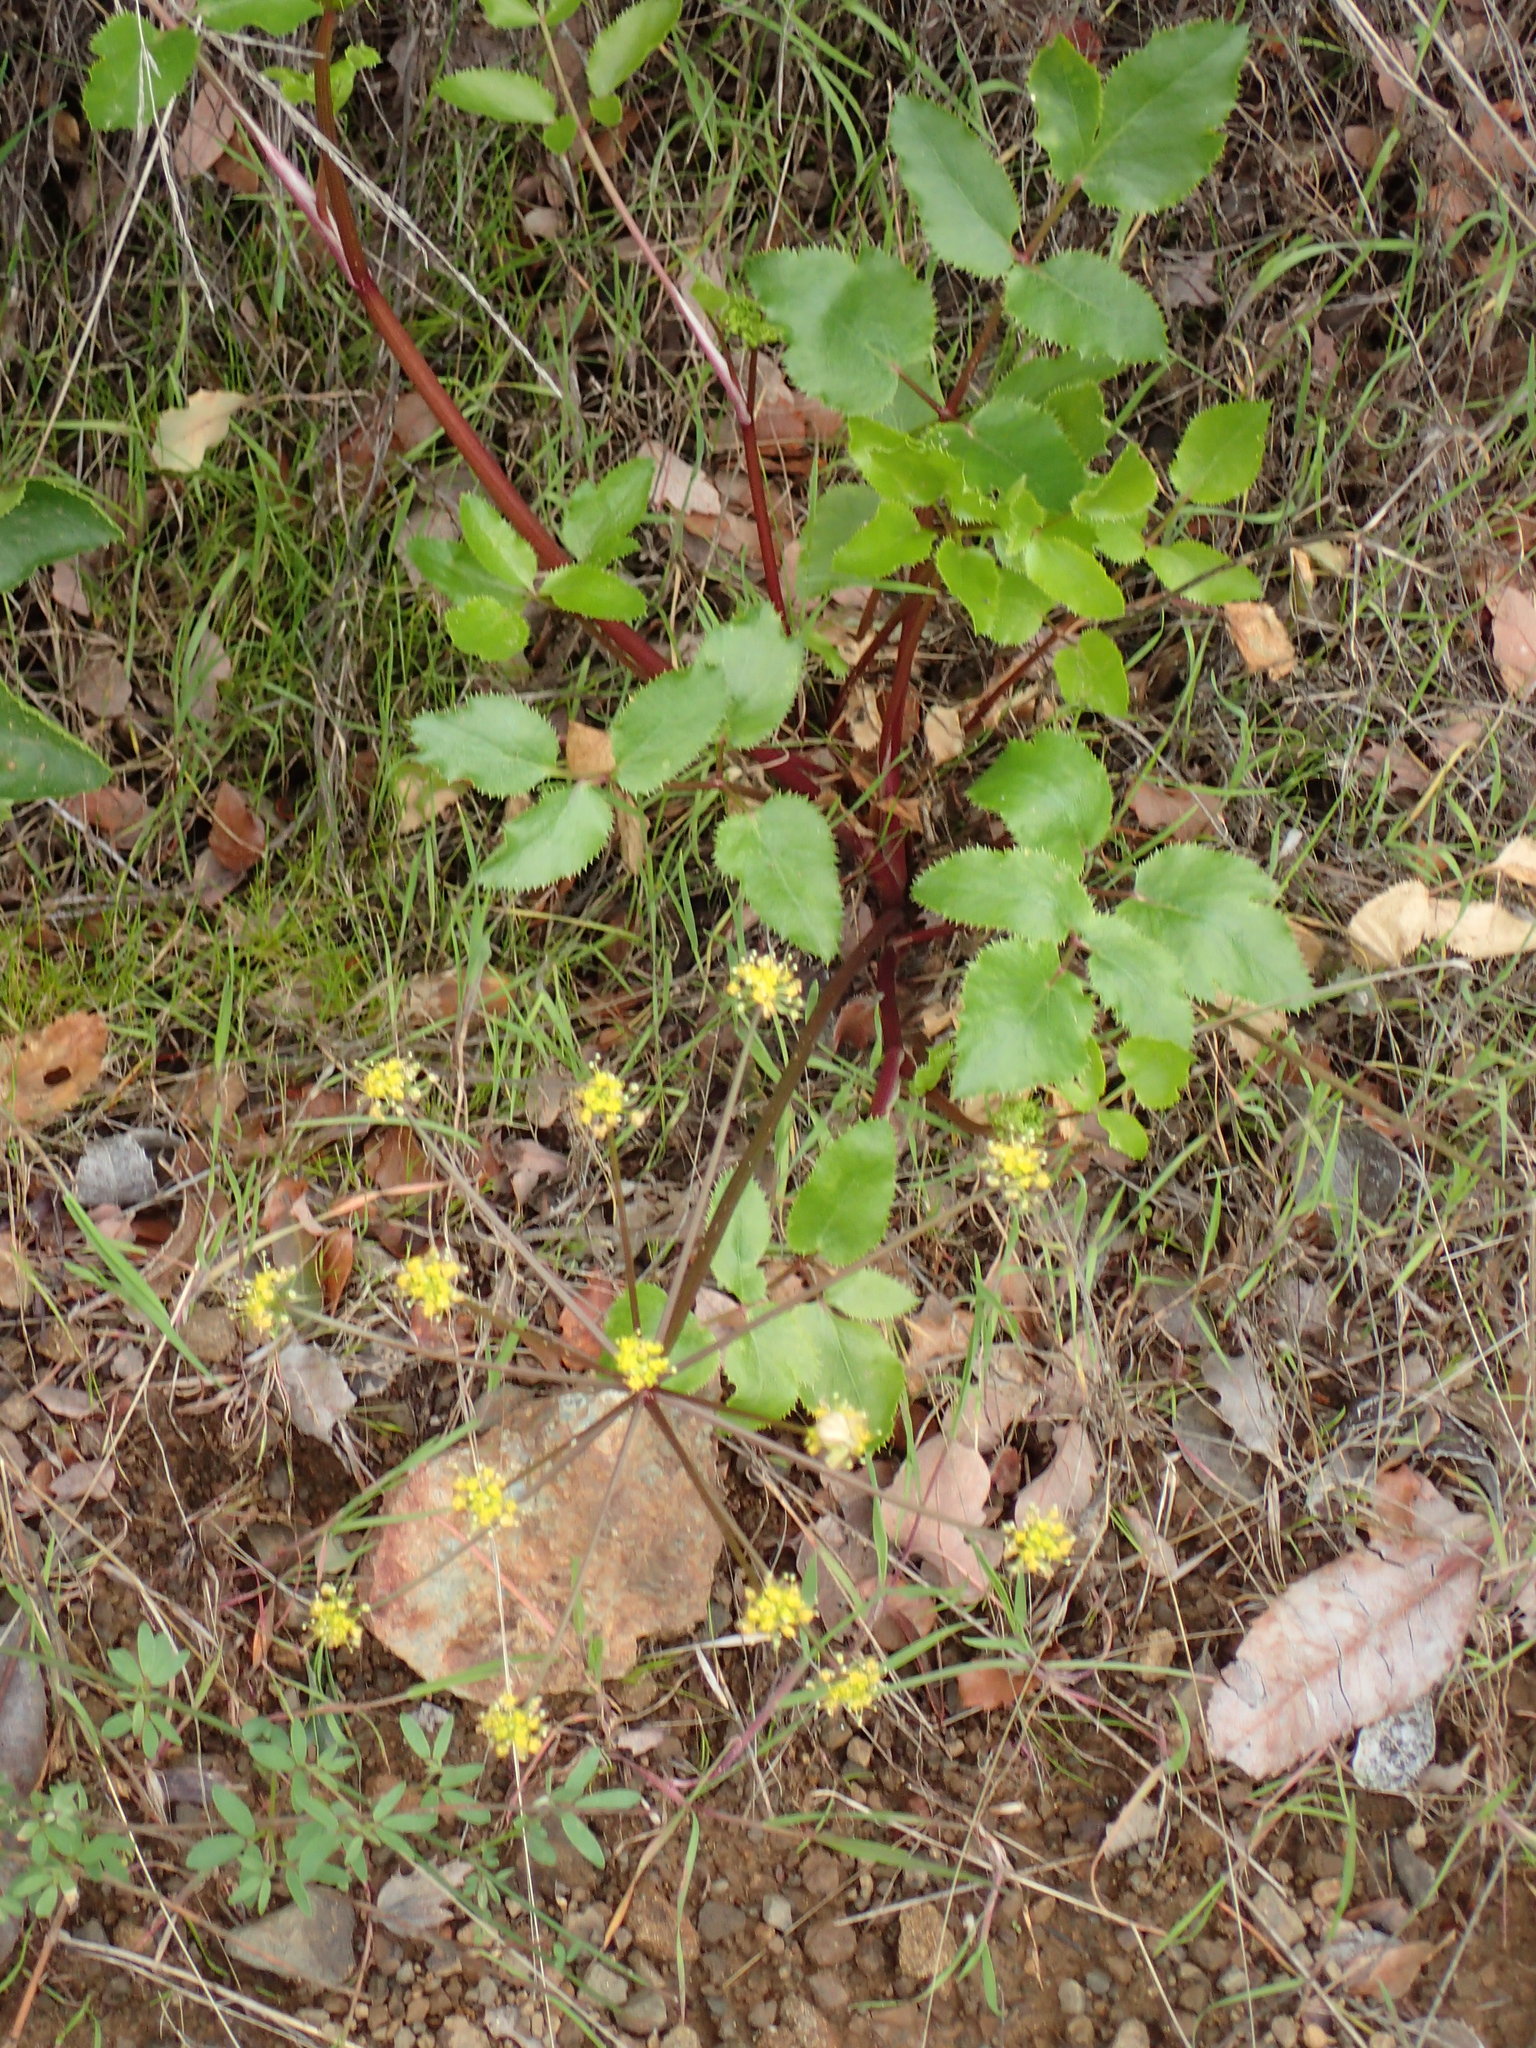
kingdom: Plantae
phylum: Tracheophyta
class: Magnoliopsida
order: Apiales
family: Apiaceae
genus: Tauschia
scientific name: Tauschia arguta
